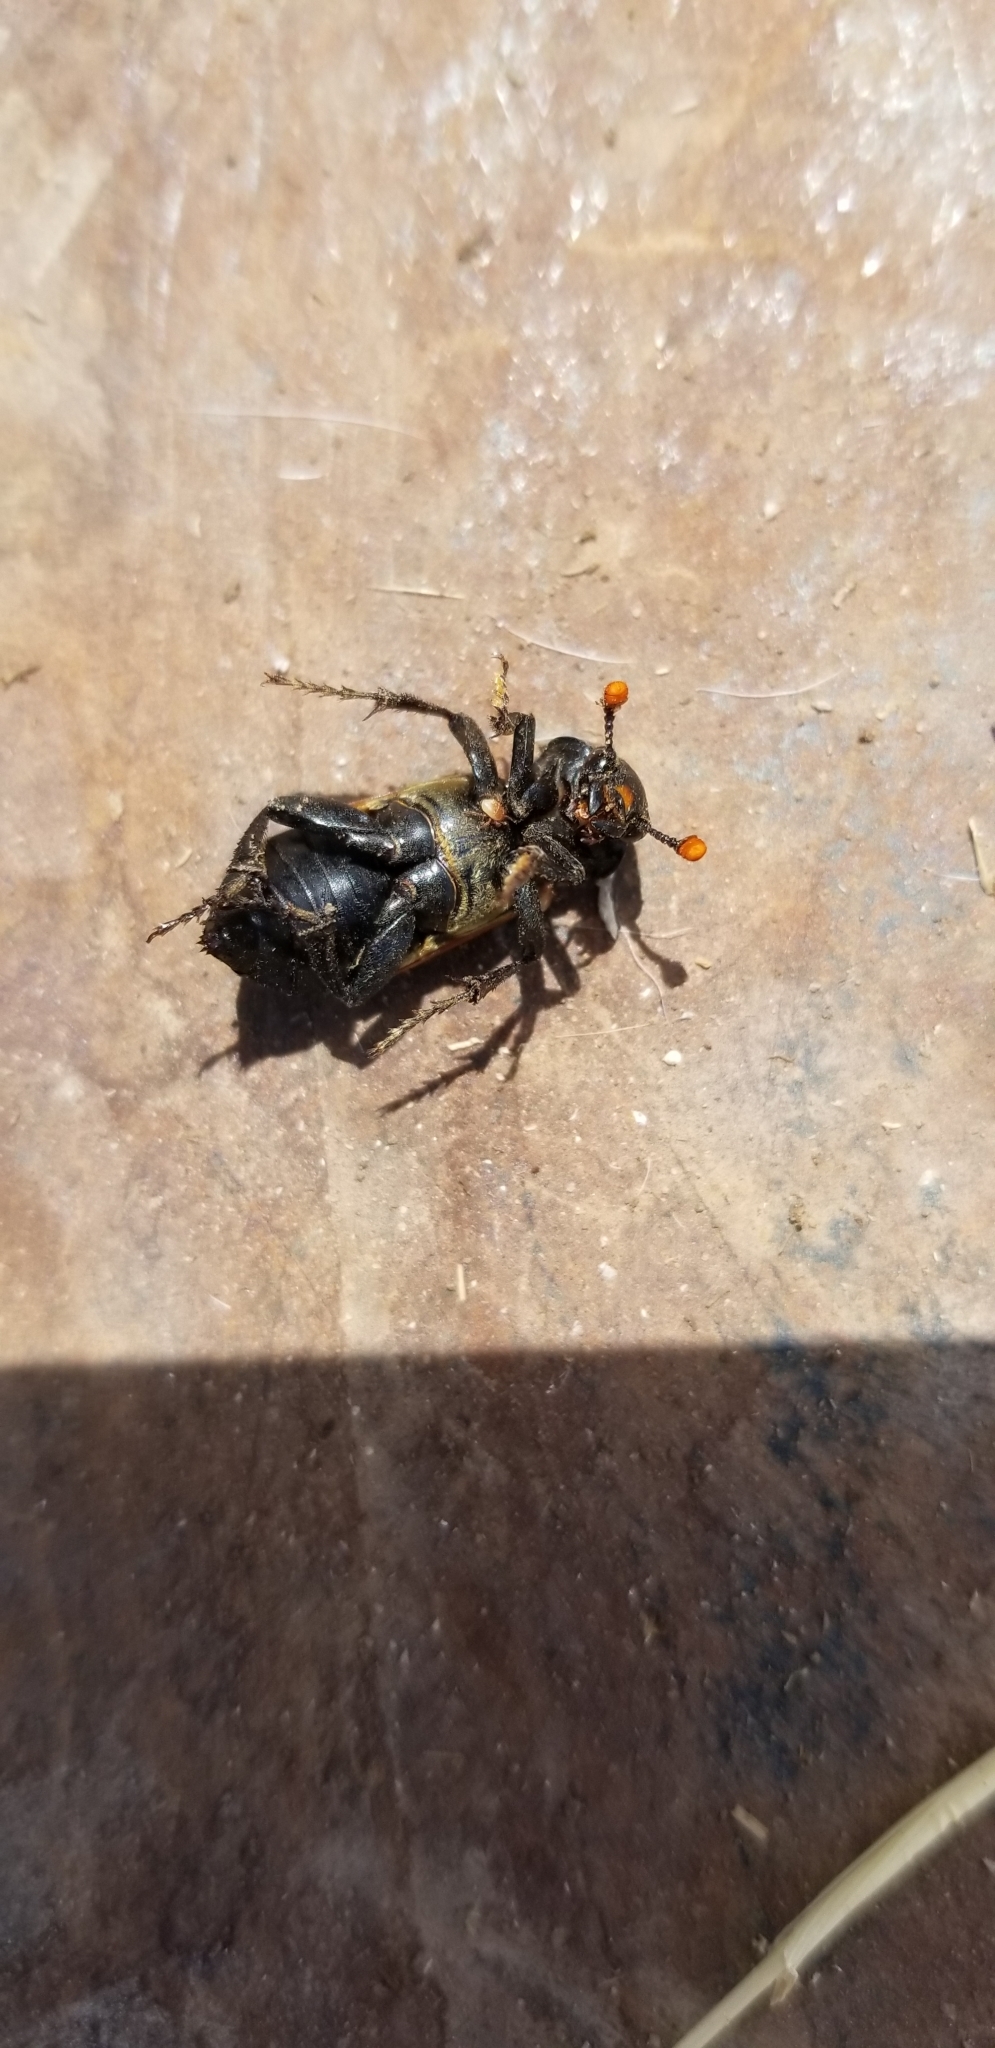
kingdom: Animalia
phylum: Arthropoda
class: Insecta
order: Coleoptera
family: Staphylinidae
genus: Nicrophorus
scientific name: Nicrophorus marginatus
